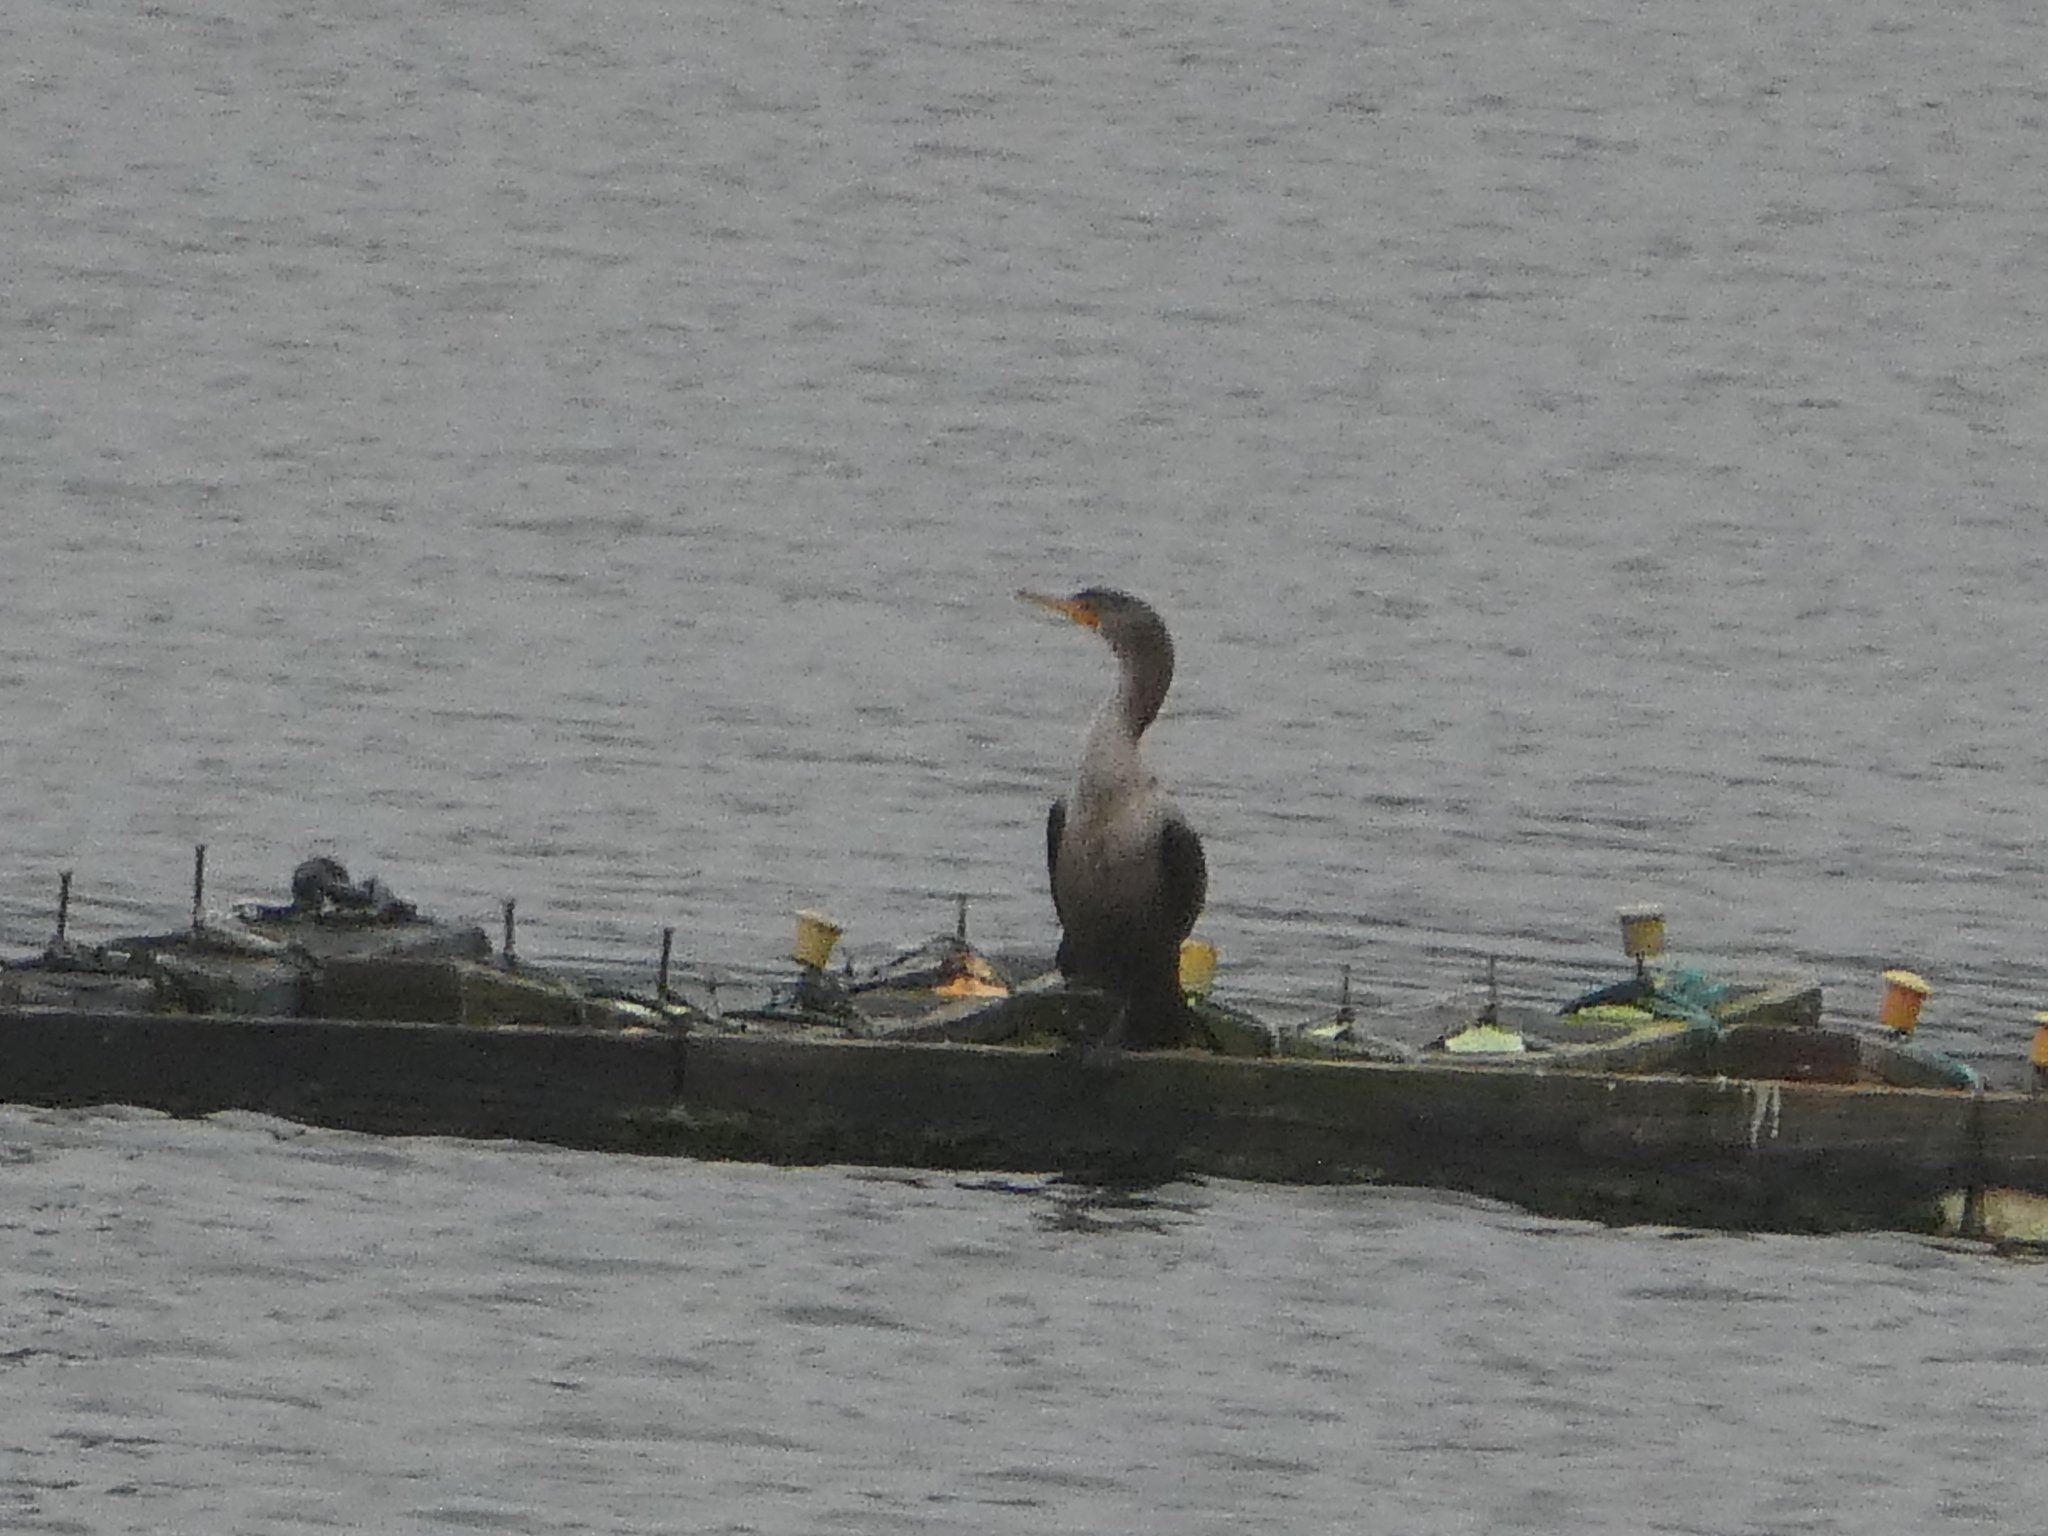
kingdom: Animalia
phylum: Chordata
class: Aves
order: Suliformes
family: Phalacrocoracidae
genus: Phalacrocorax
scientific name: Phalacrocorax auritus
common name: Double-crested cormorant
